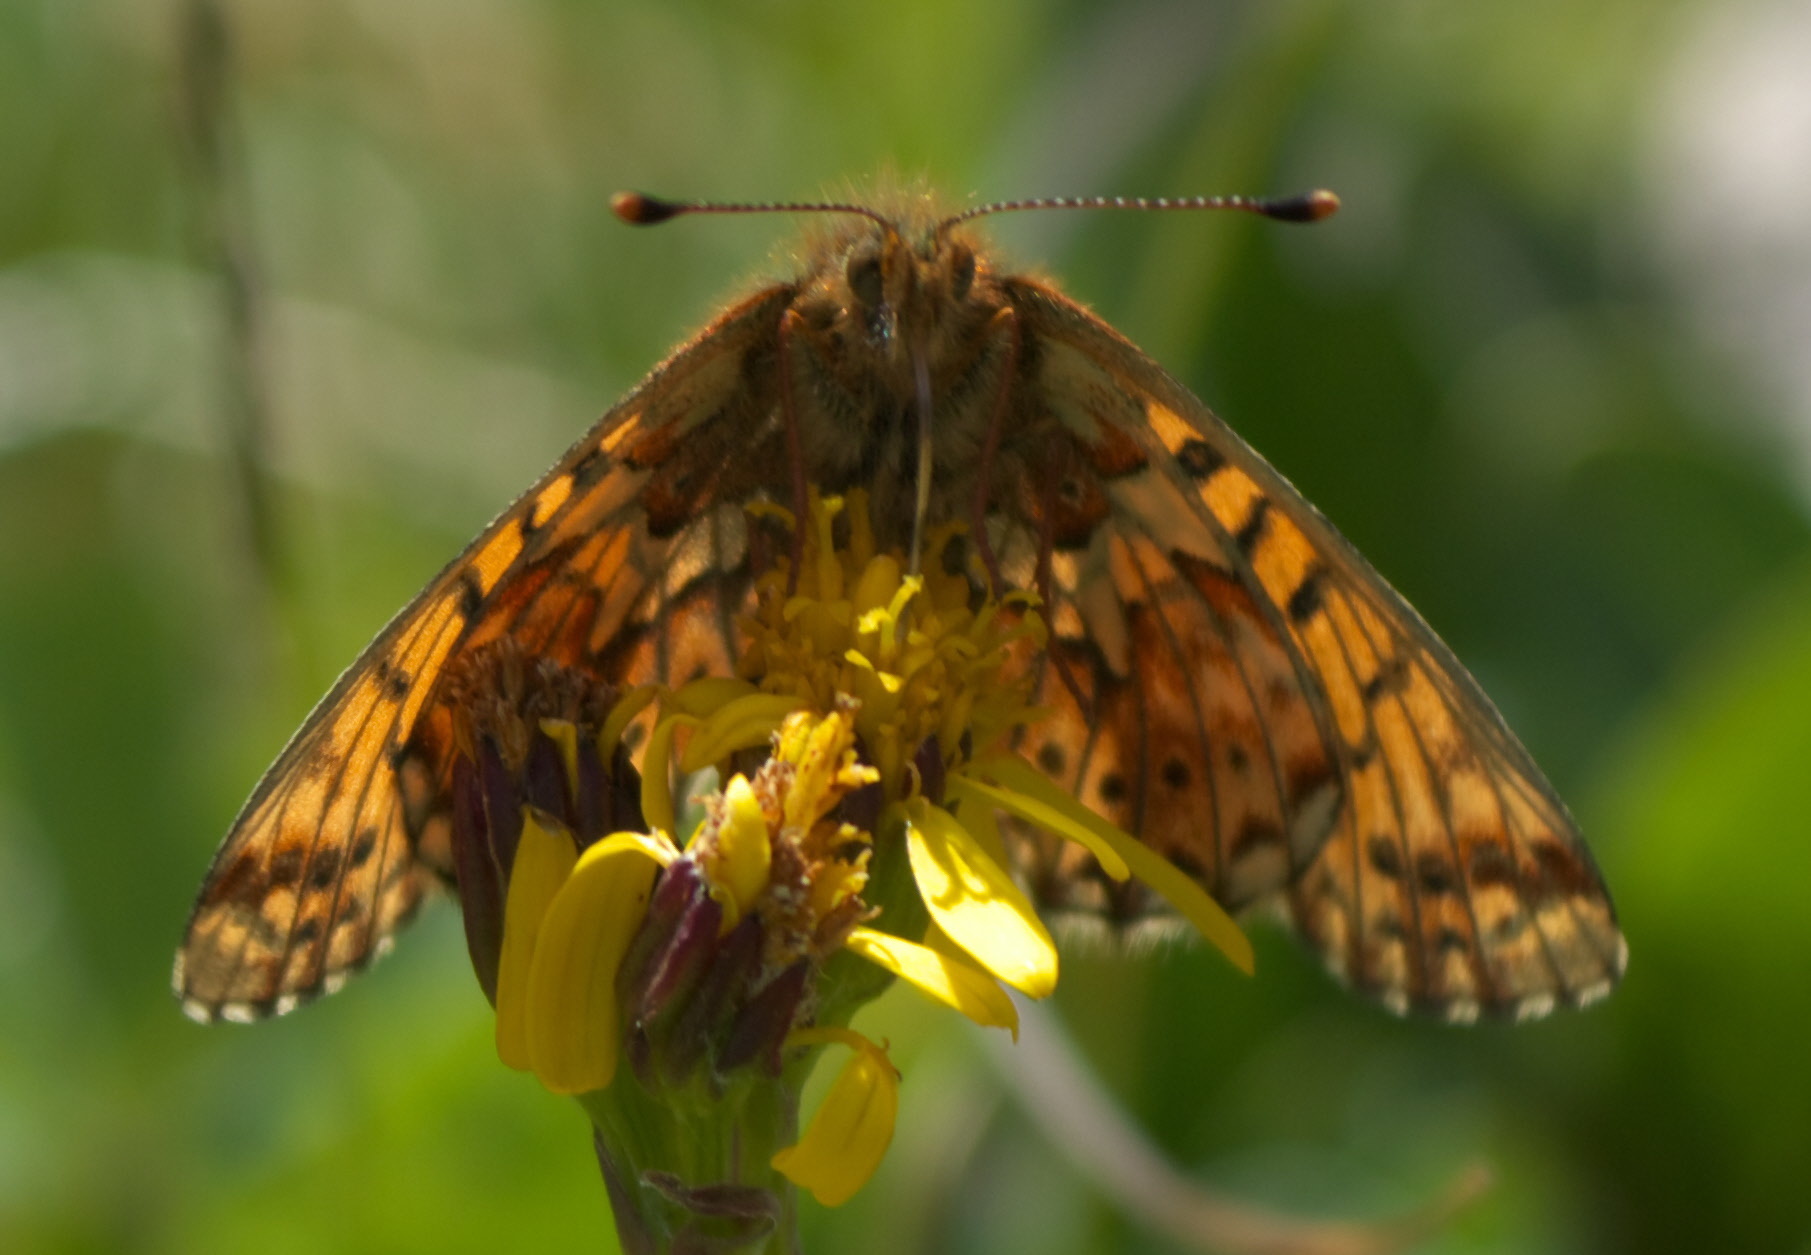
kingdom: Animalia
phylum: Arthropoda
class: Insecta
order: Lepidoptera
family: Nymphalidae
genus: Clossiana
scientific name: Clossiana helena
